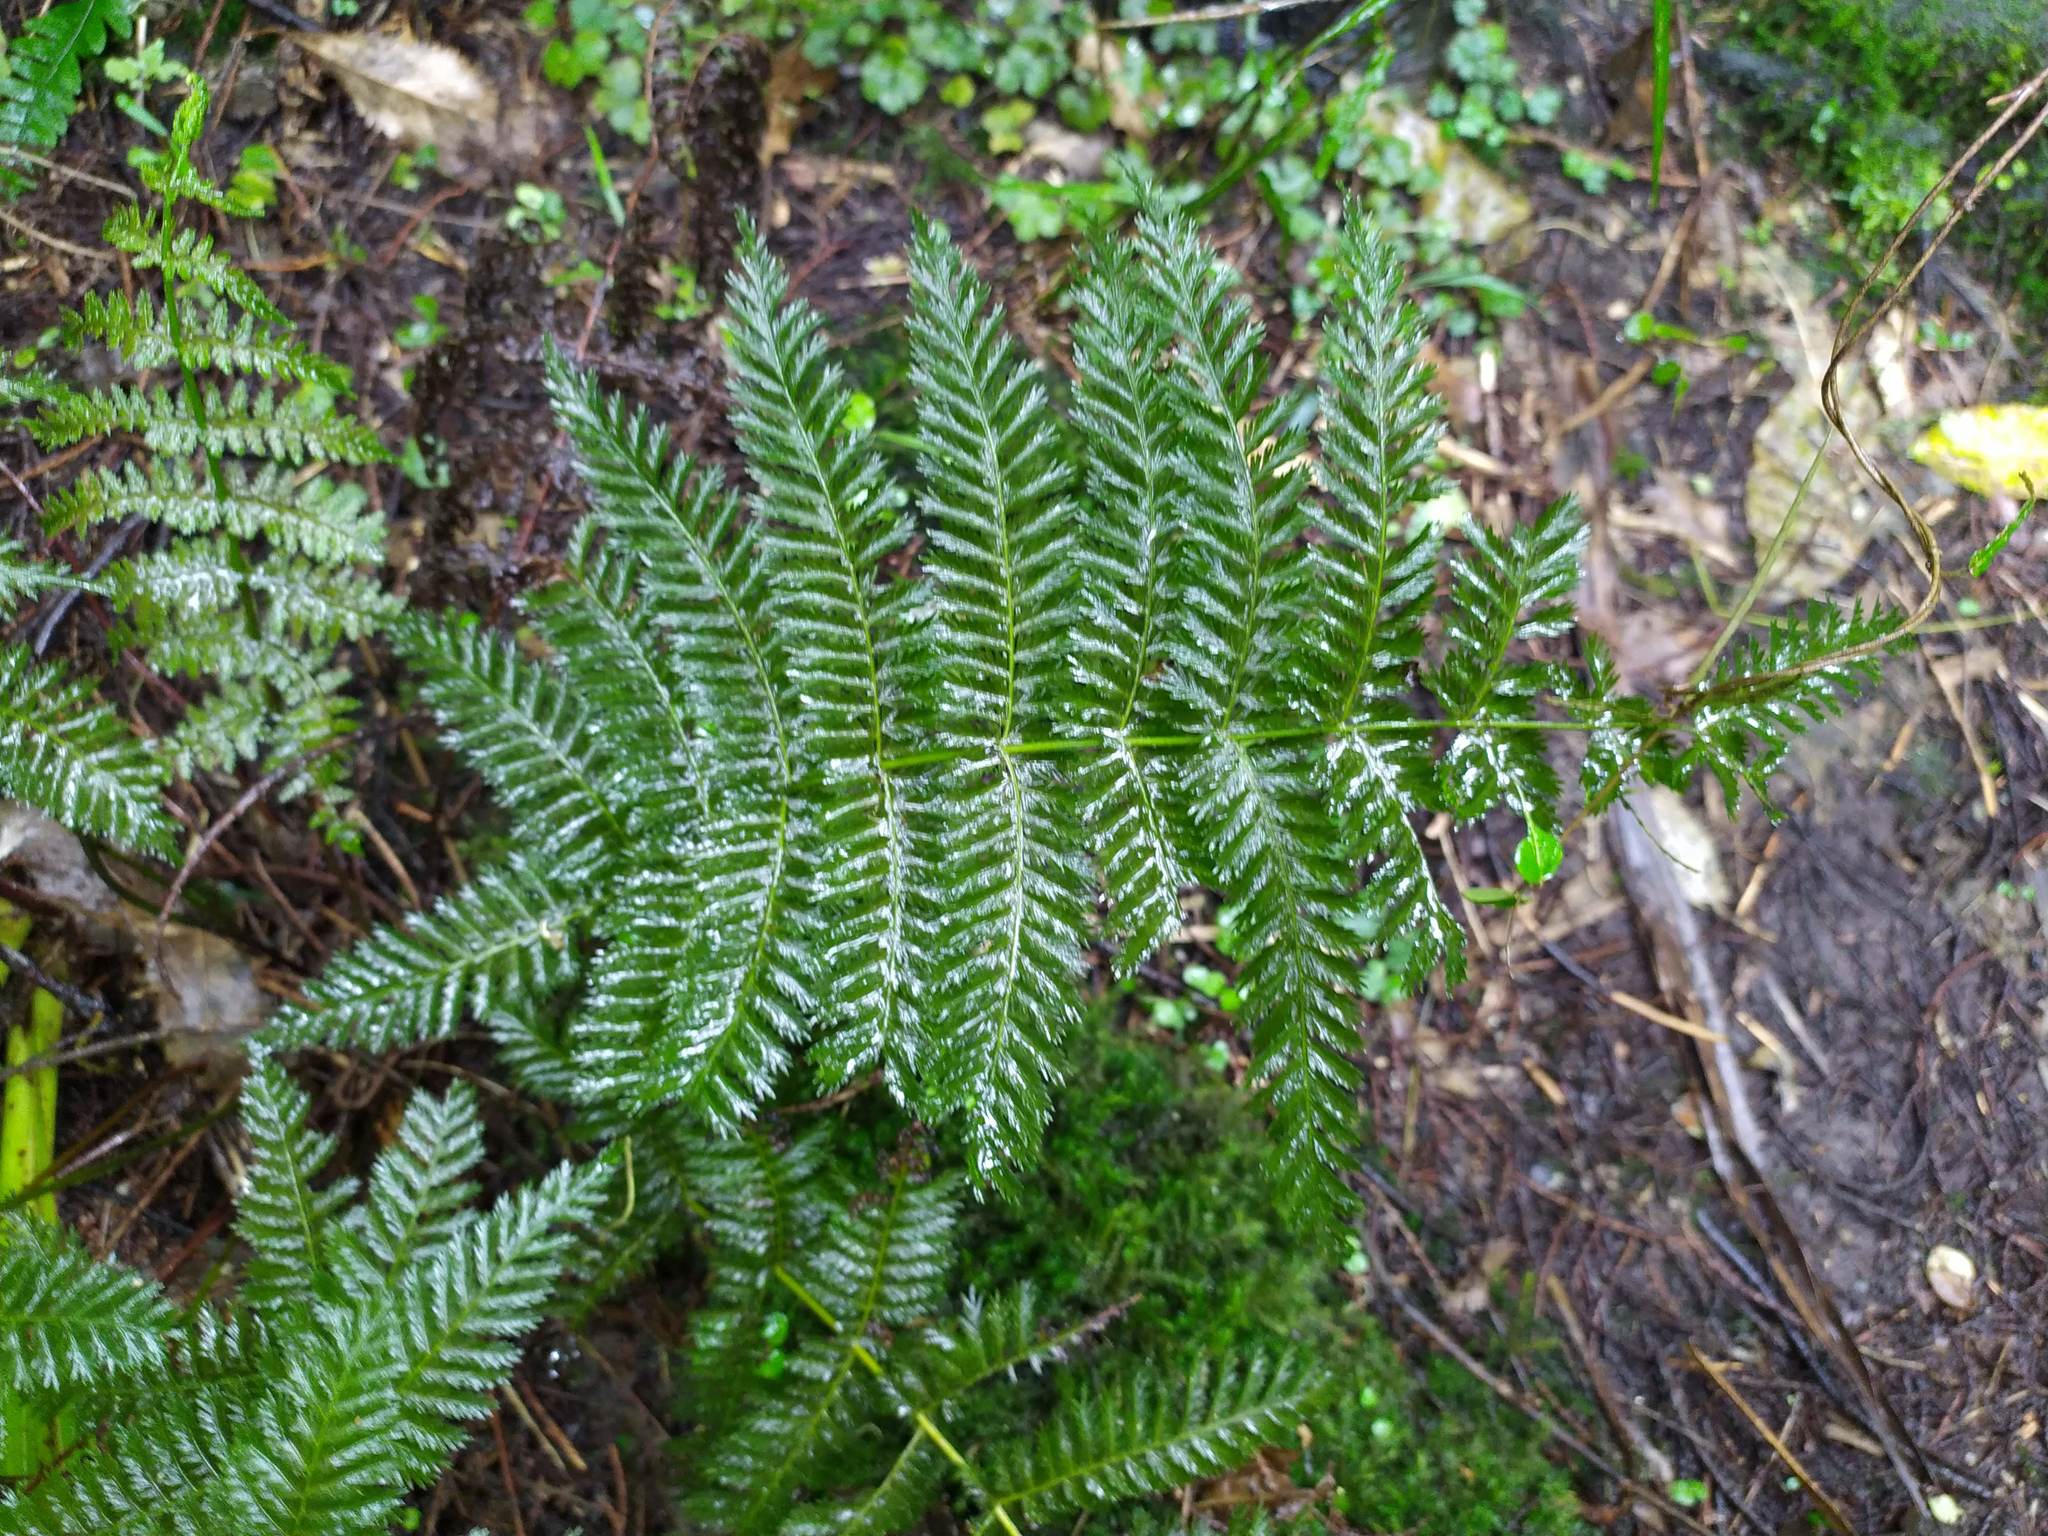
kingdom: Plantae
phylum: Tracheophyta
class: Polypodiopsida
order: Osmundales
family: Osmundaceae
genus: Leptopteris
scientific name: Leptopteris hymenophylloides
